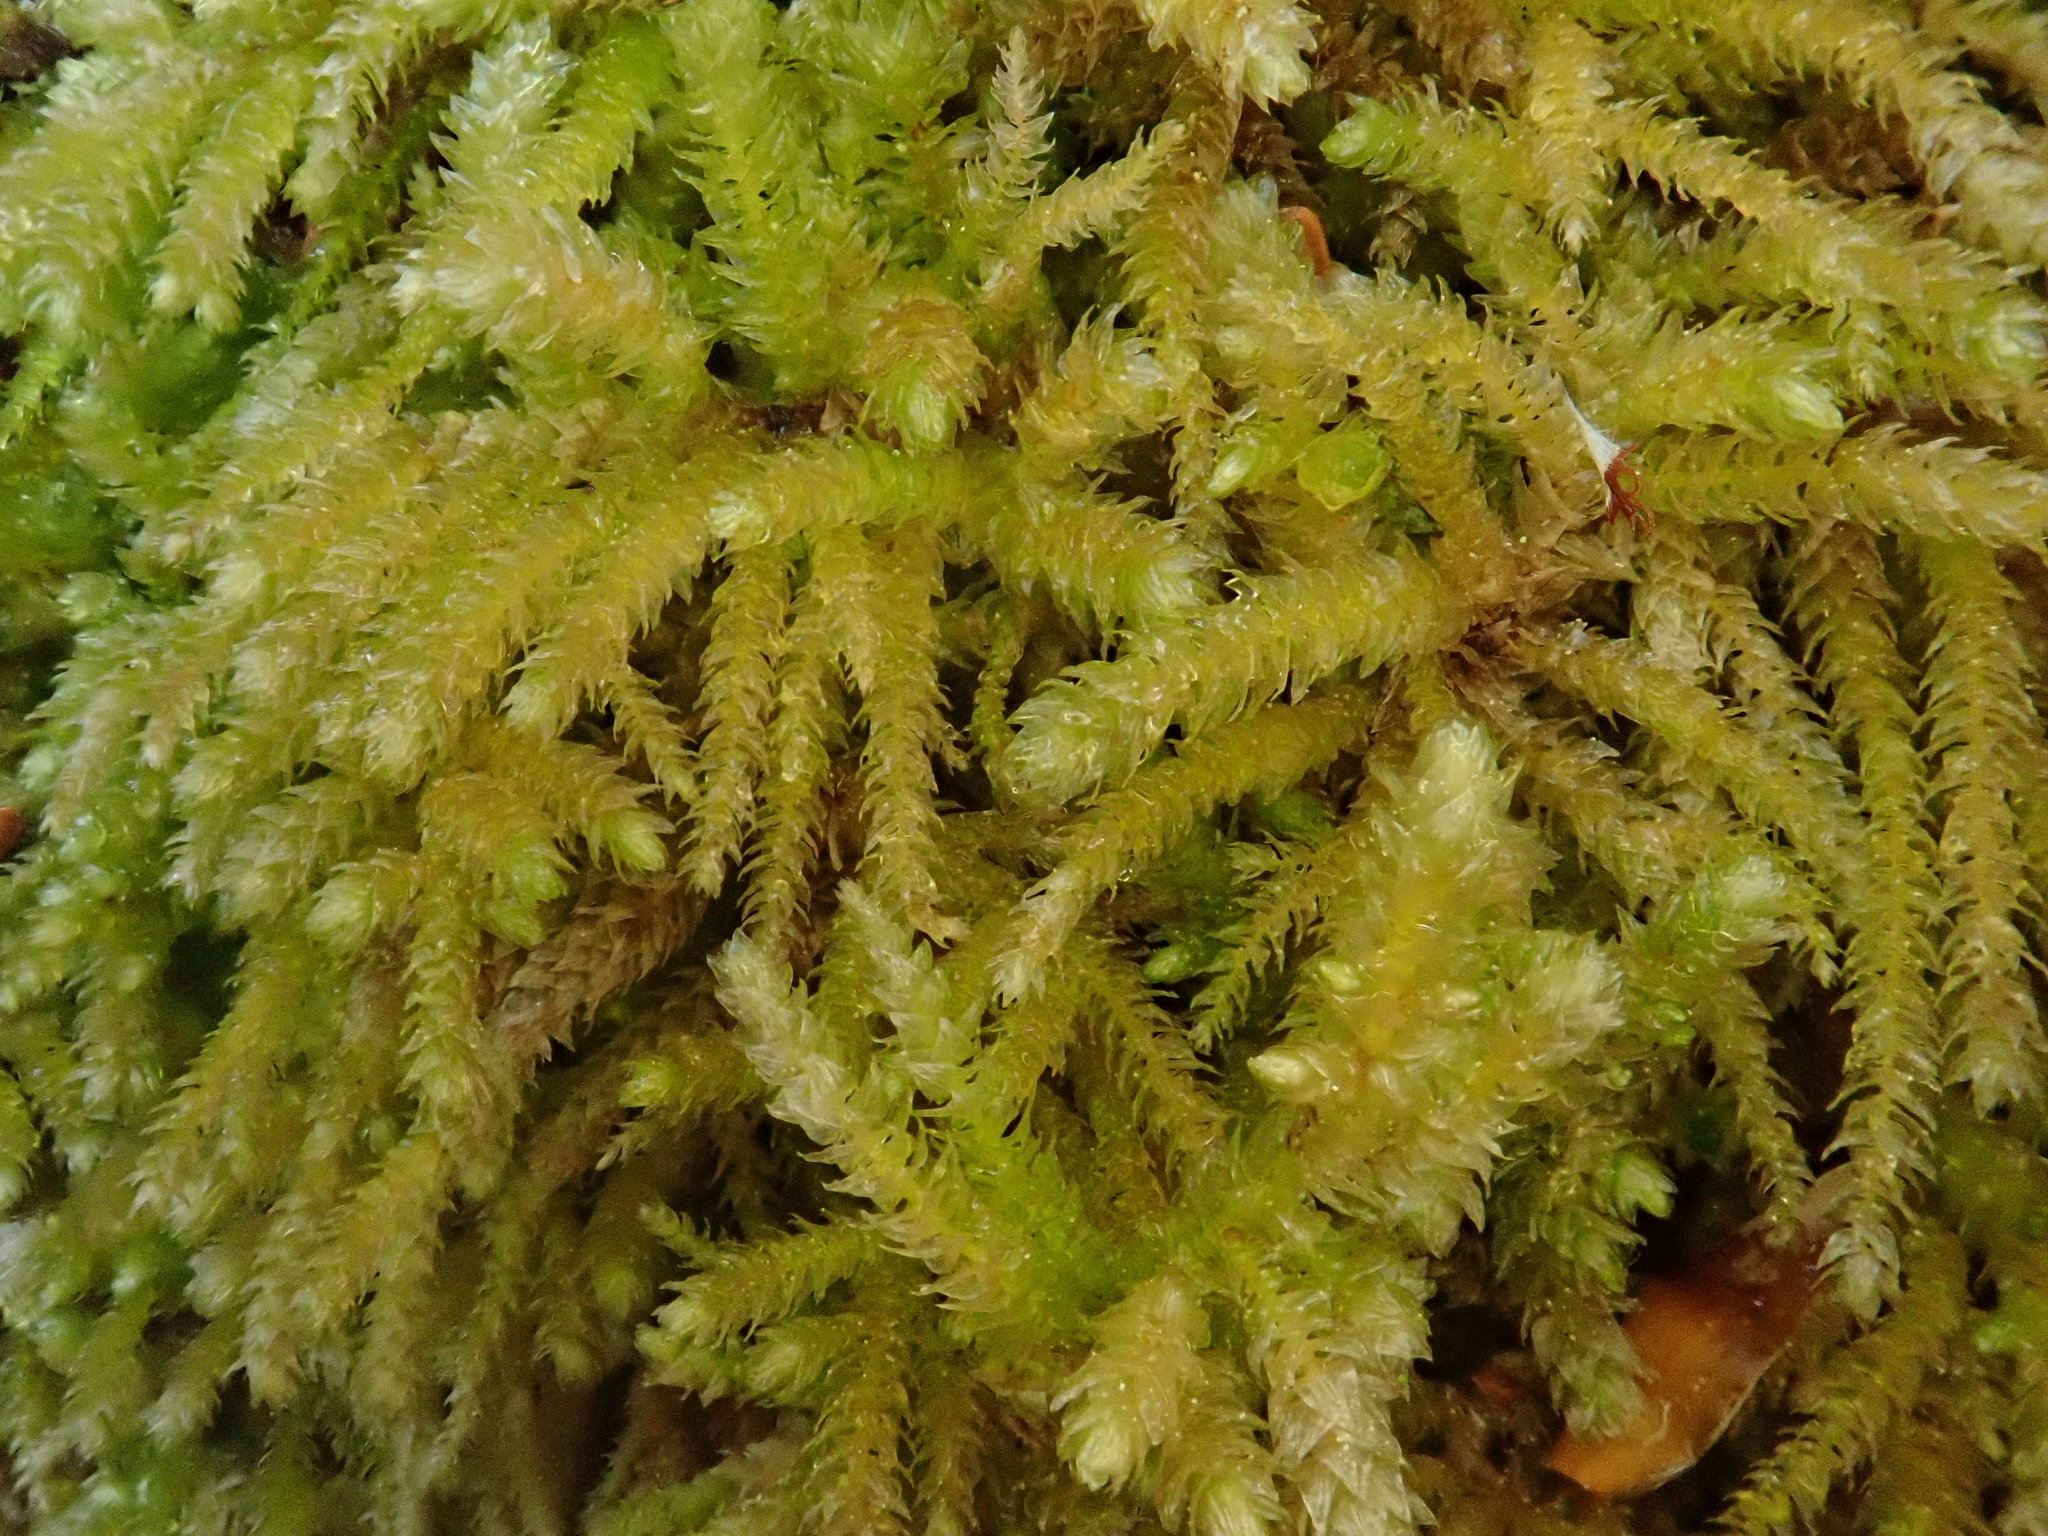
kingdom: Plantae
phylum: Bryophyta
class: Bryopsida
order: Hypnales
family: Brachytheciaceae
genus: Eurhynchium
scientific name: Eurhynchium angustirete
